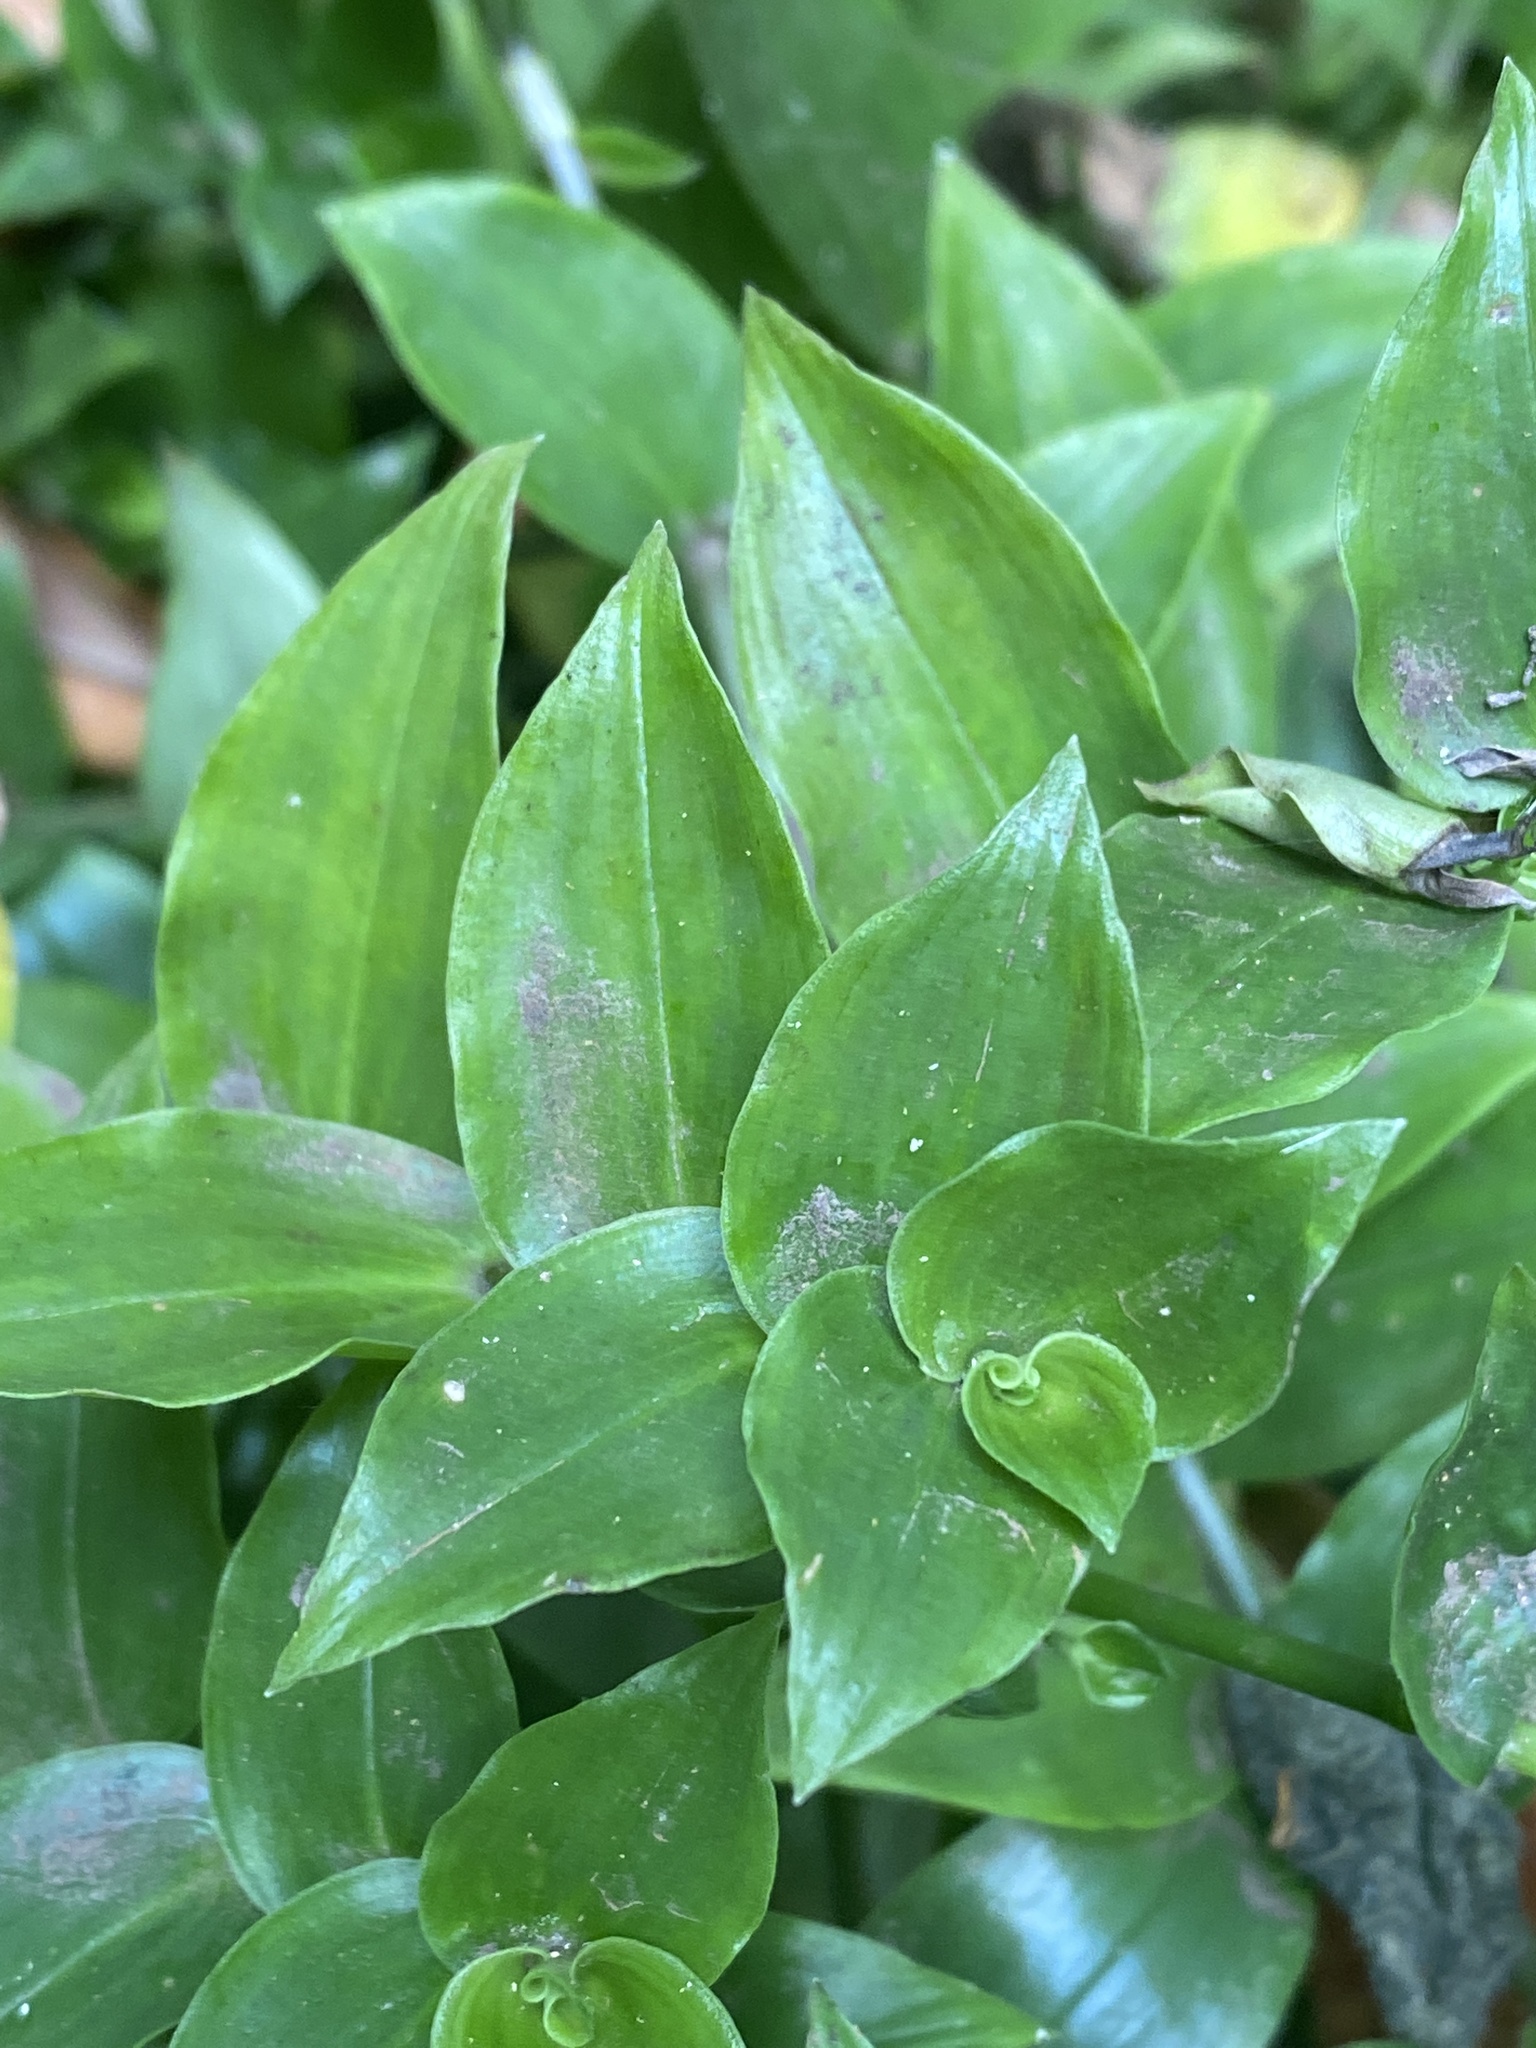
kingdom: Plantae
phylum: Tracheophyta
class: Liliopsida
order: Commelinales
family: Commelinaceae
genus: Tradescantia
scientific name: Tradescantia fluminensis
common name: Wandering-jew
